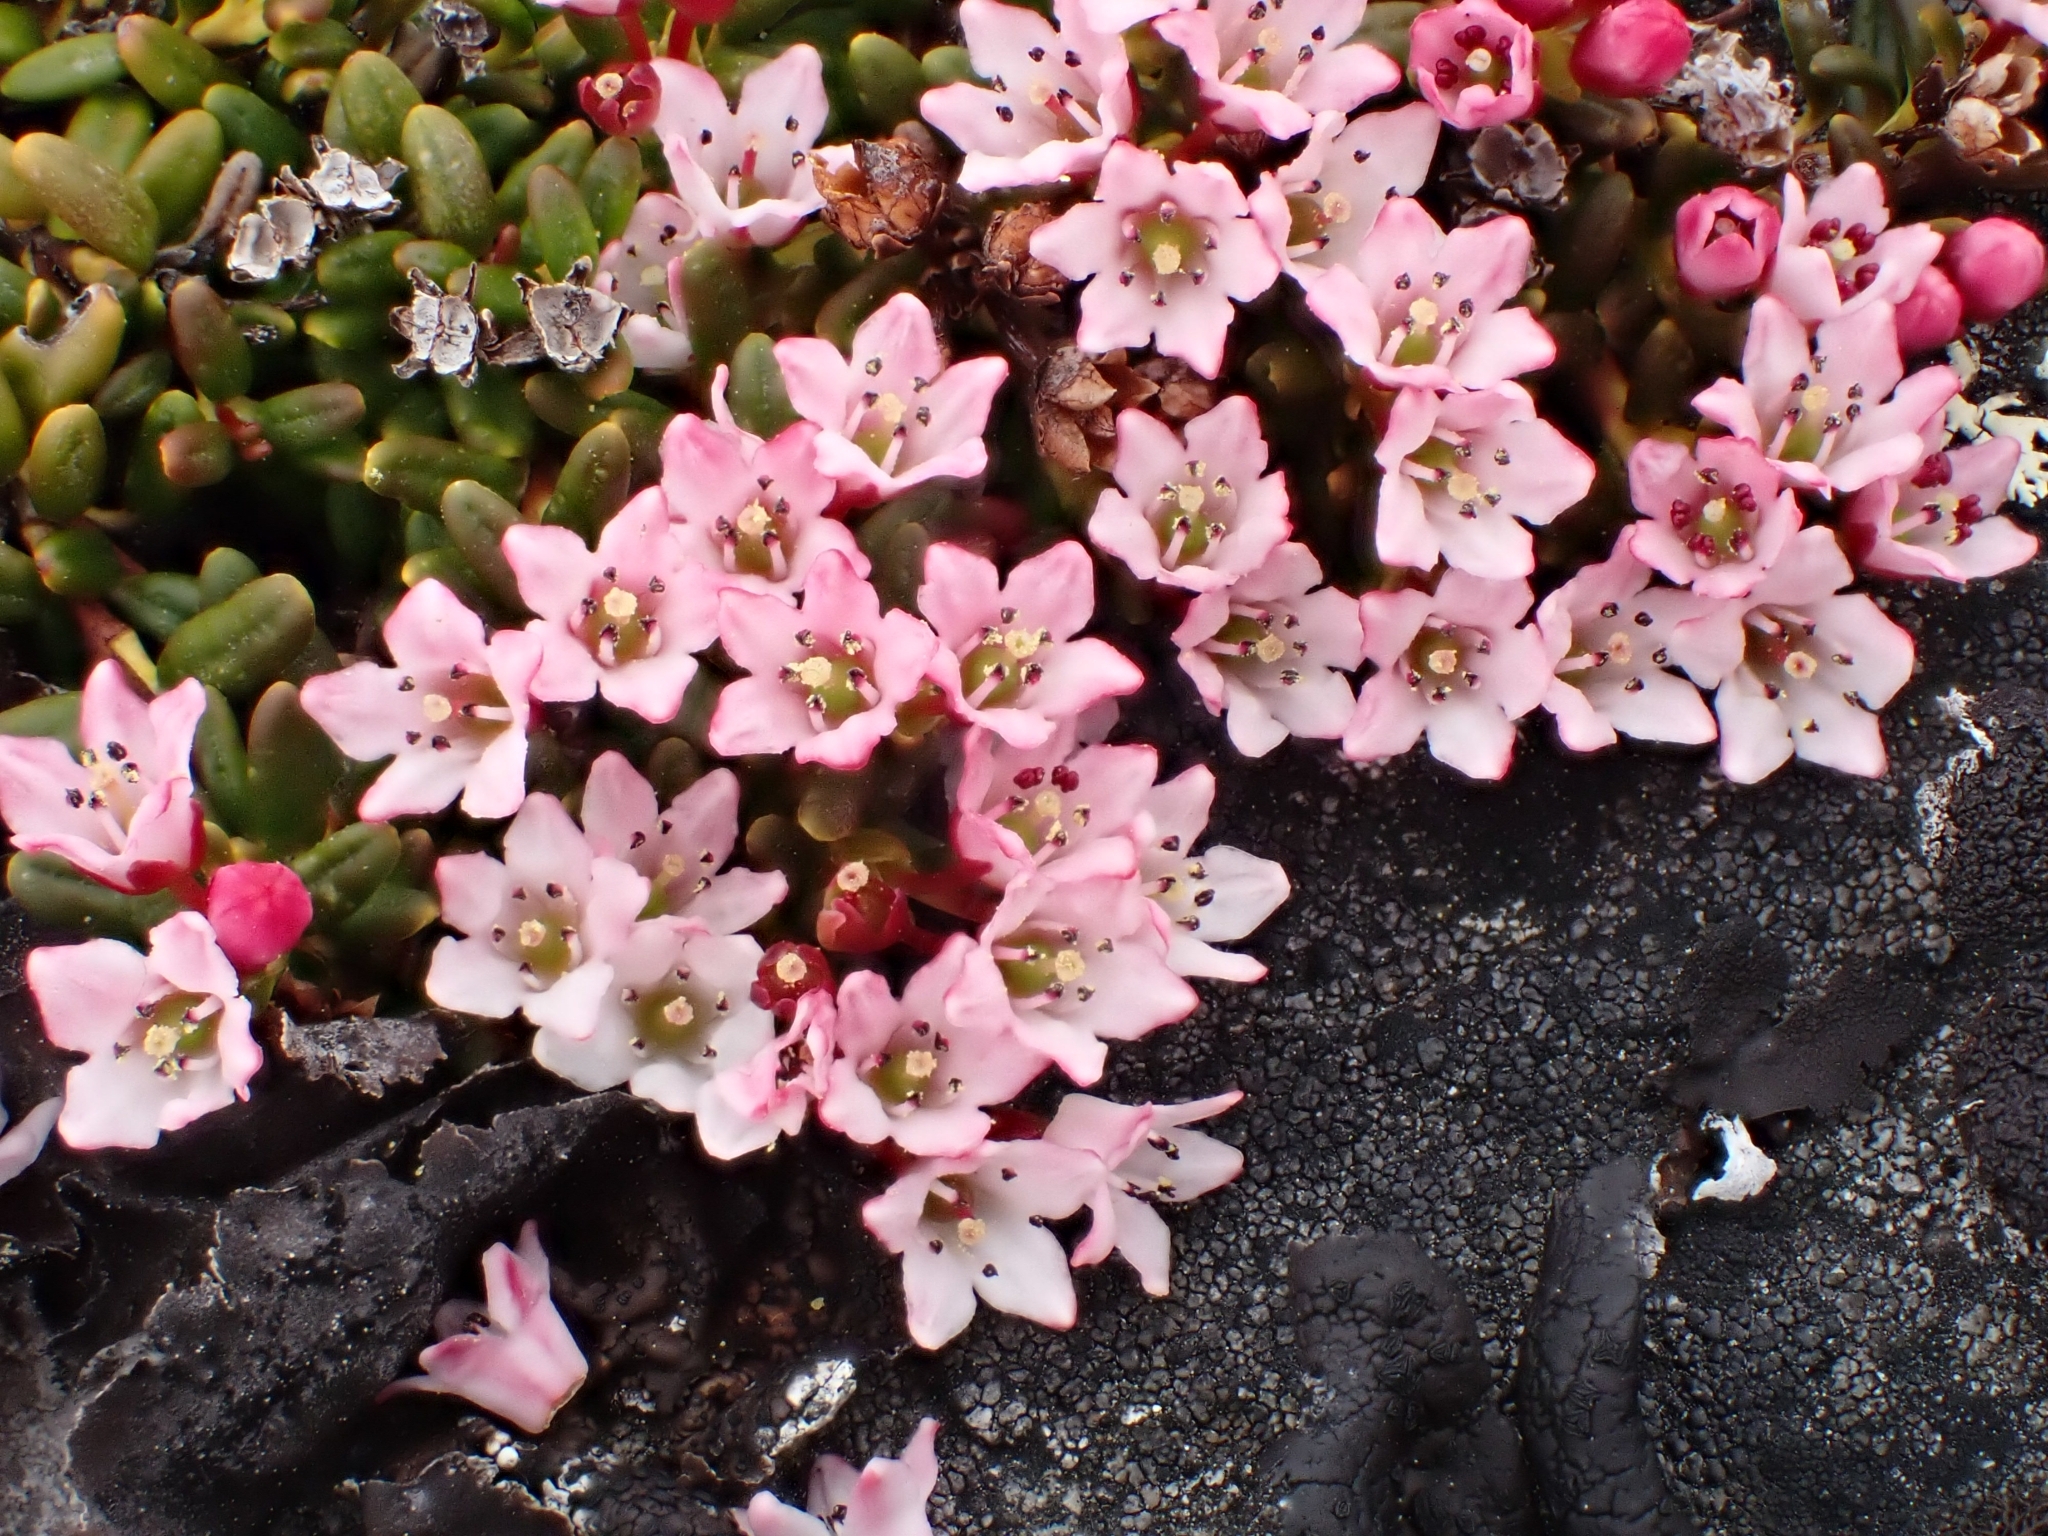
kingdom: Plantae
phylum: Tracheophyta
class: Magnoliopsida
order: Ericales
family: Ericaceae
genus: Kalmia
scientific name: Kalmia procumbens
